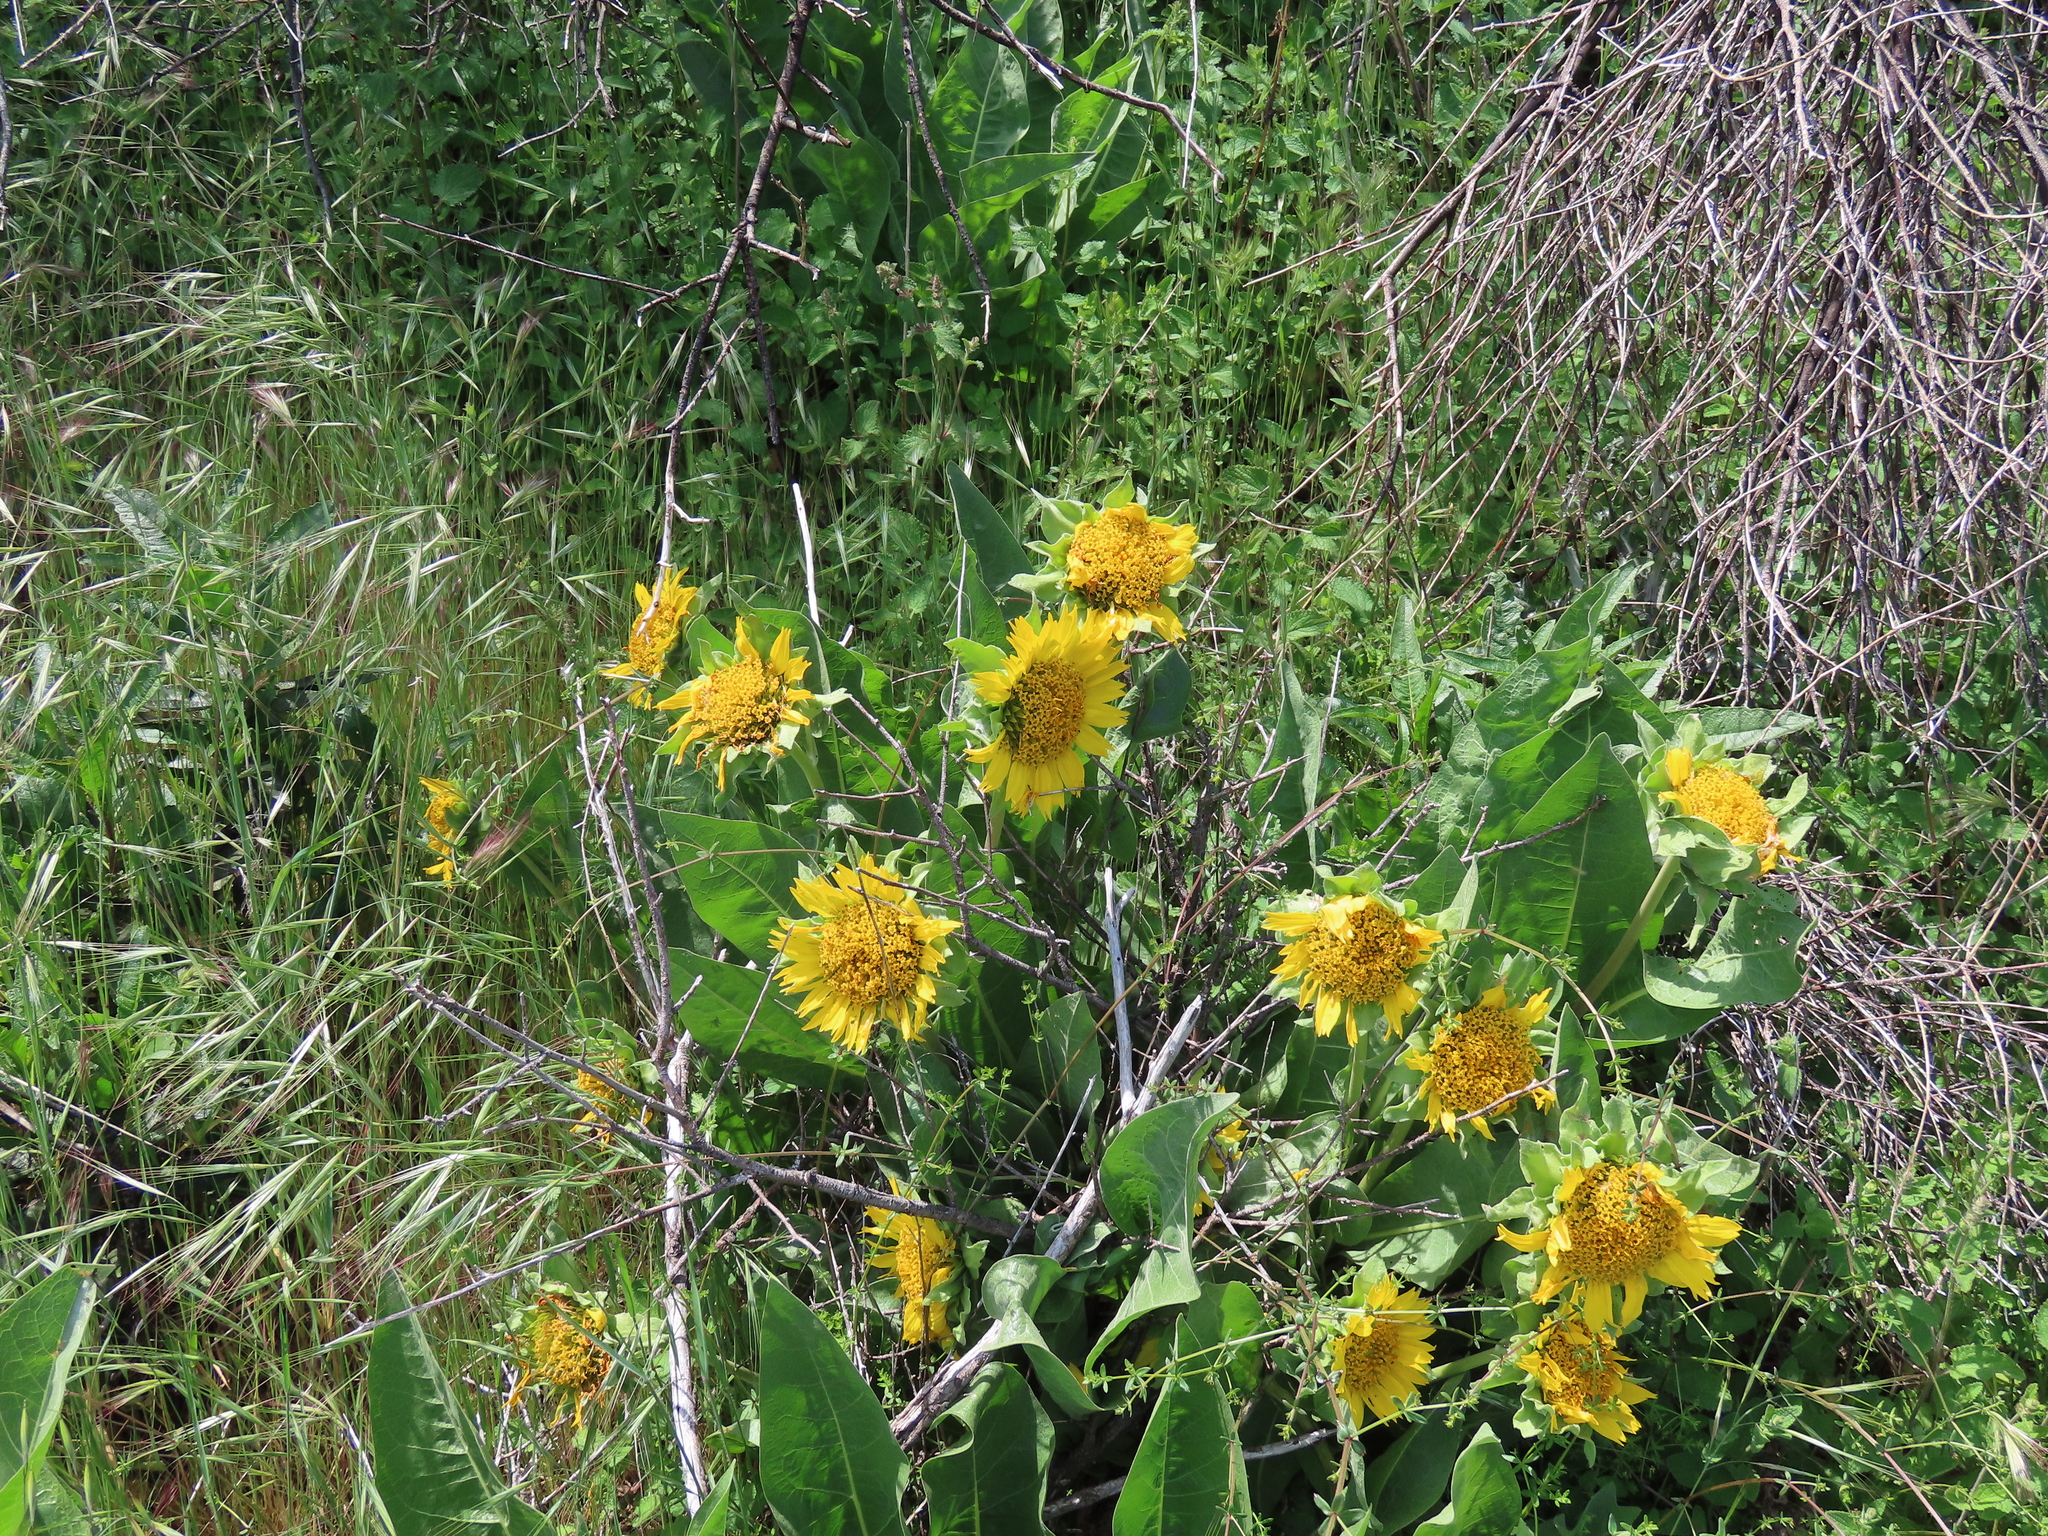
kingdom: Plantae
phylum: Tracheophyta
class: Magnoliopsida
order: Asterales
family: Asteraceae
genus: Wyethia
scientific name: Wyethia glabra
